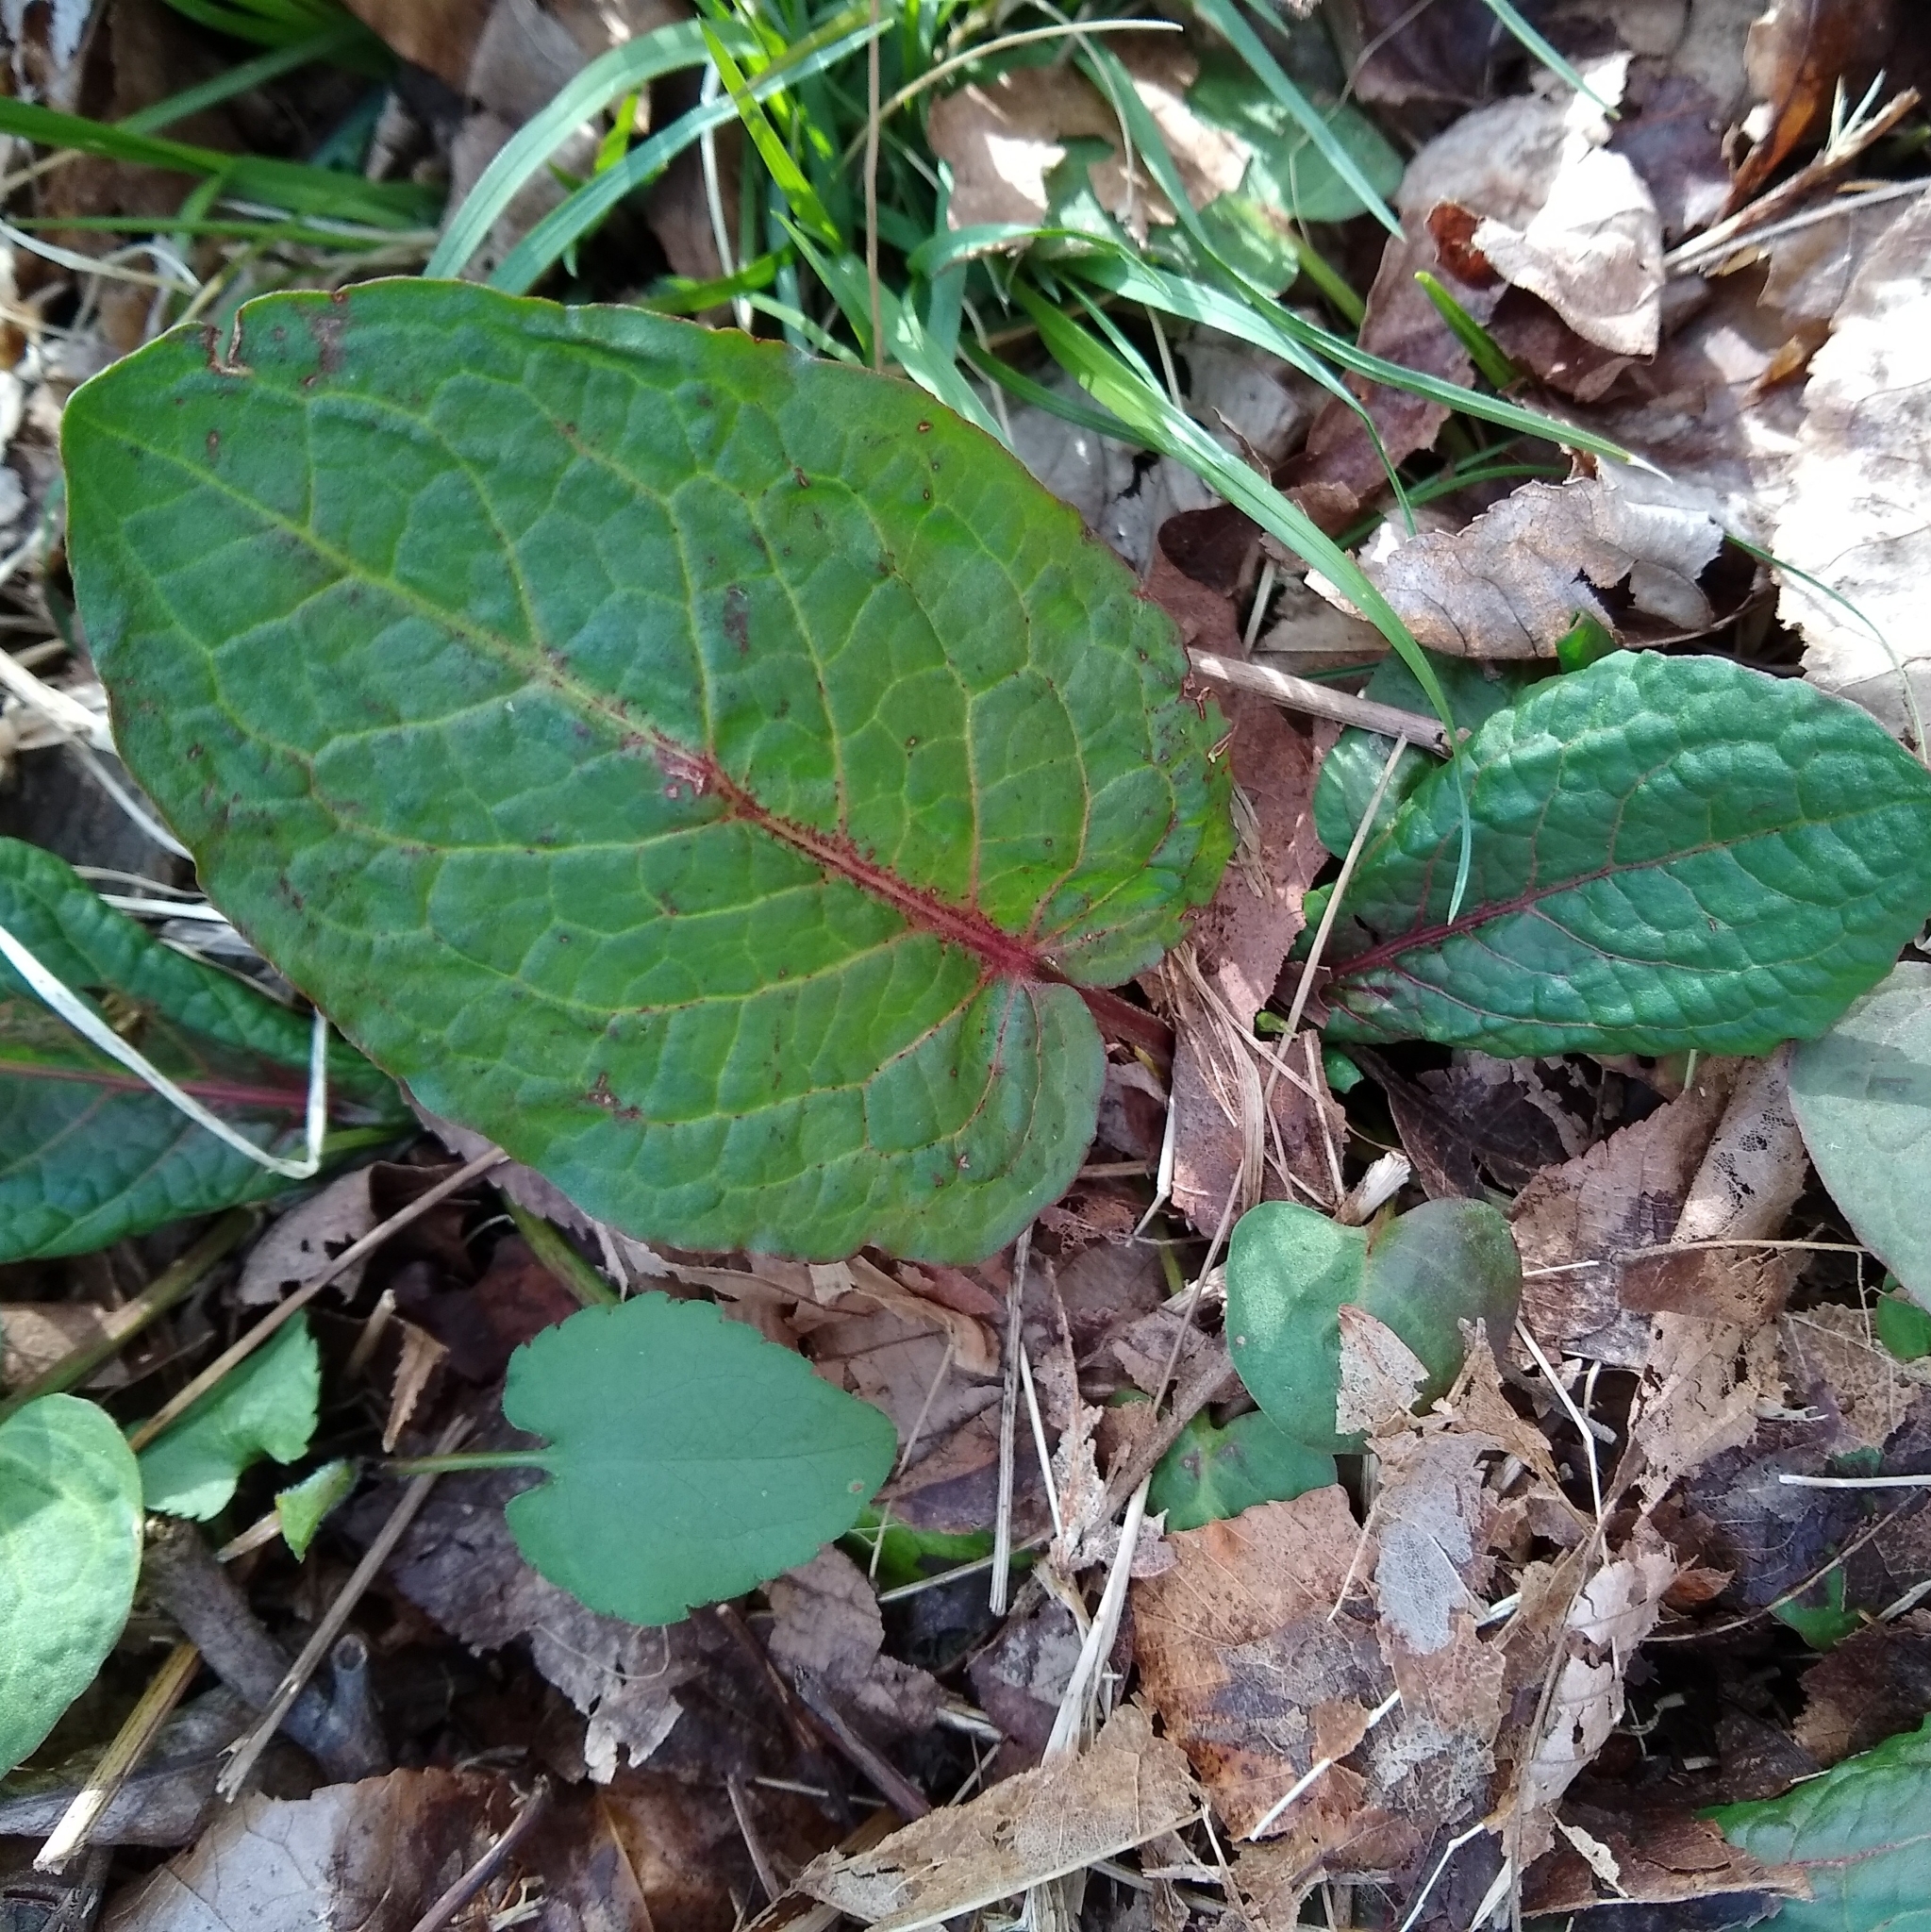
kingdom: Plantae
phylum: Tracheophyta
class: Magnoliopsida
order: Caryophyllales
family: Polygonaceae
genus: Rumex
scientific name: Rumex obtusifolius
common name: Bitter dock
